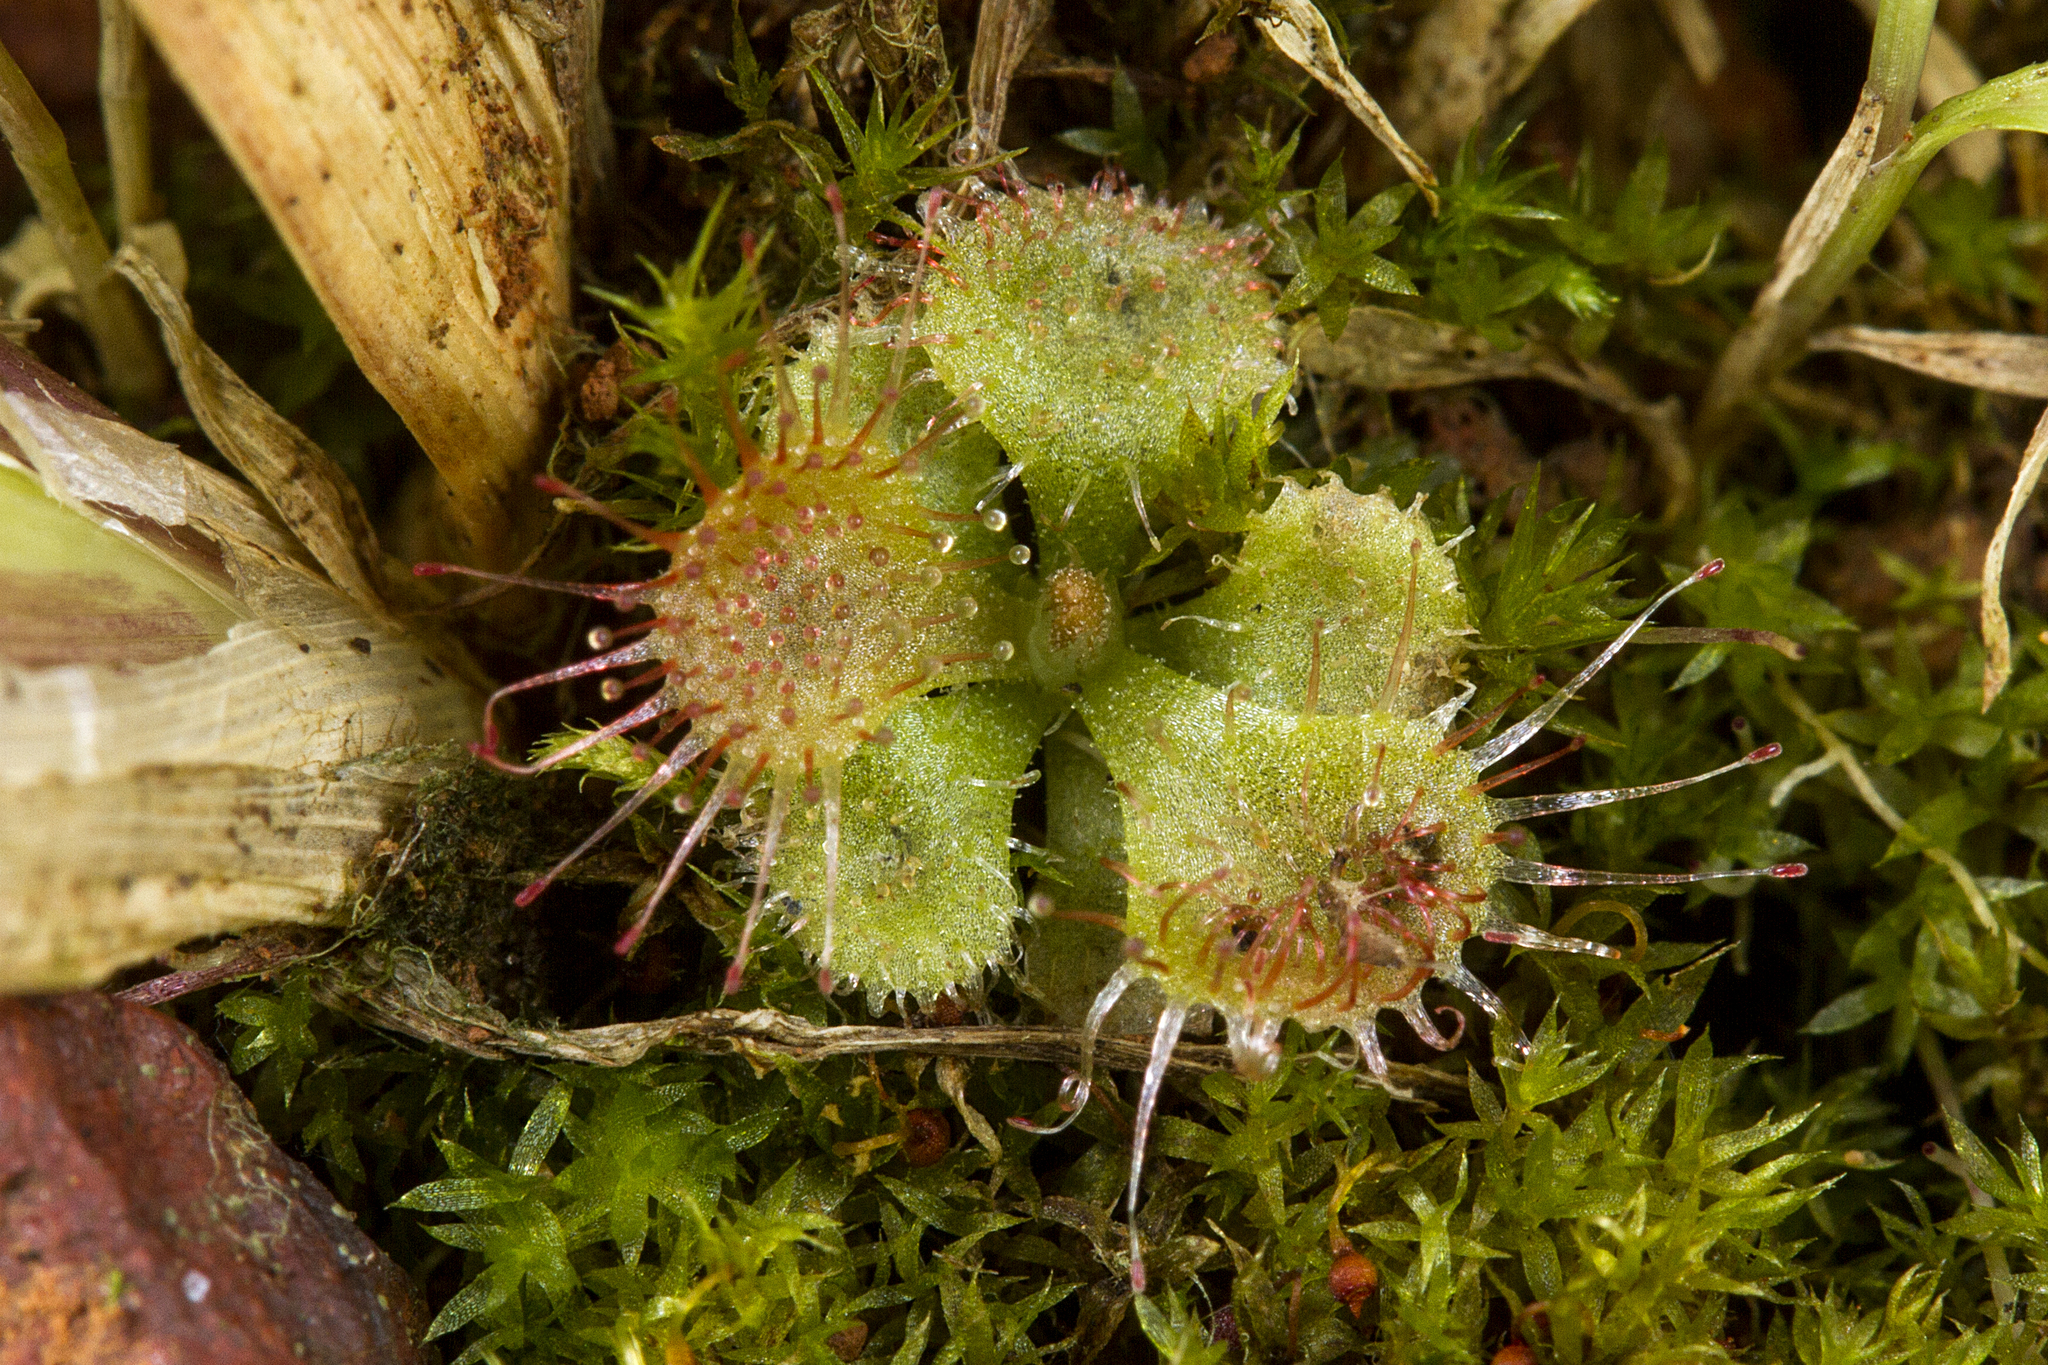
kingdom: Plantae
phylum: Tracheophyta
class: Magnoliopsida
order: Caryophyllales
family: Droseraceae
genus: Drosera
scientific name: Drosera spatulata
